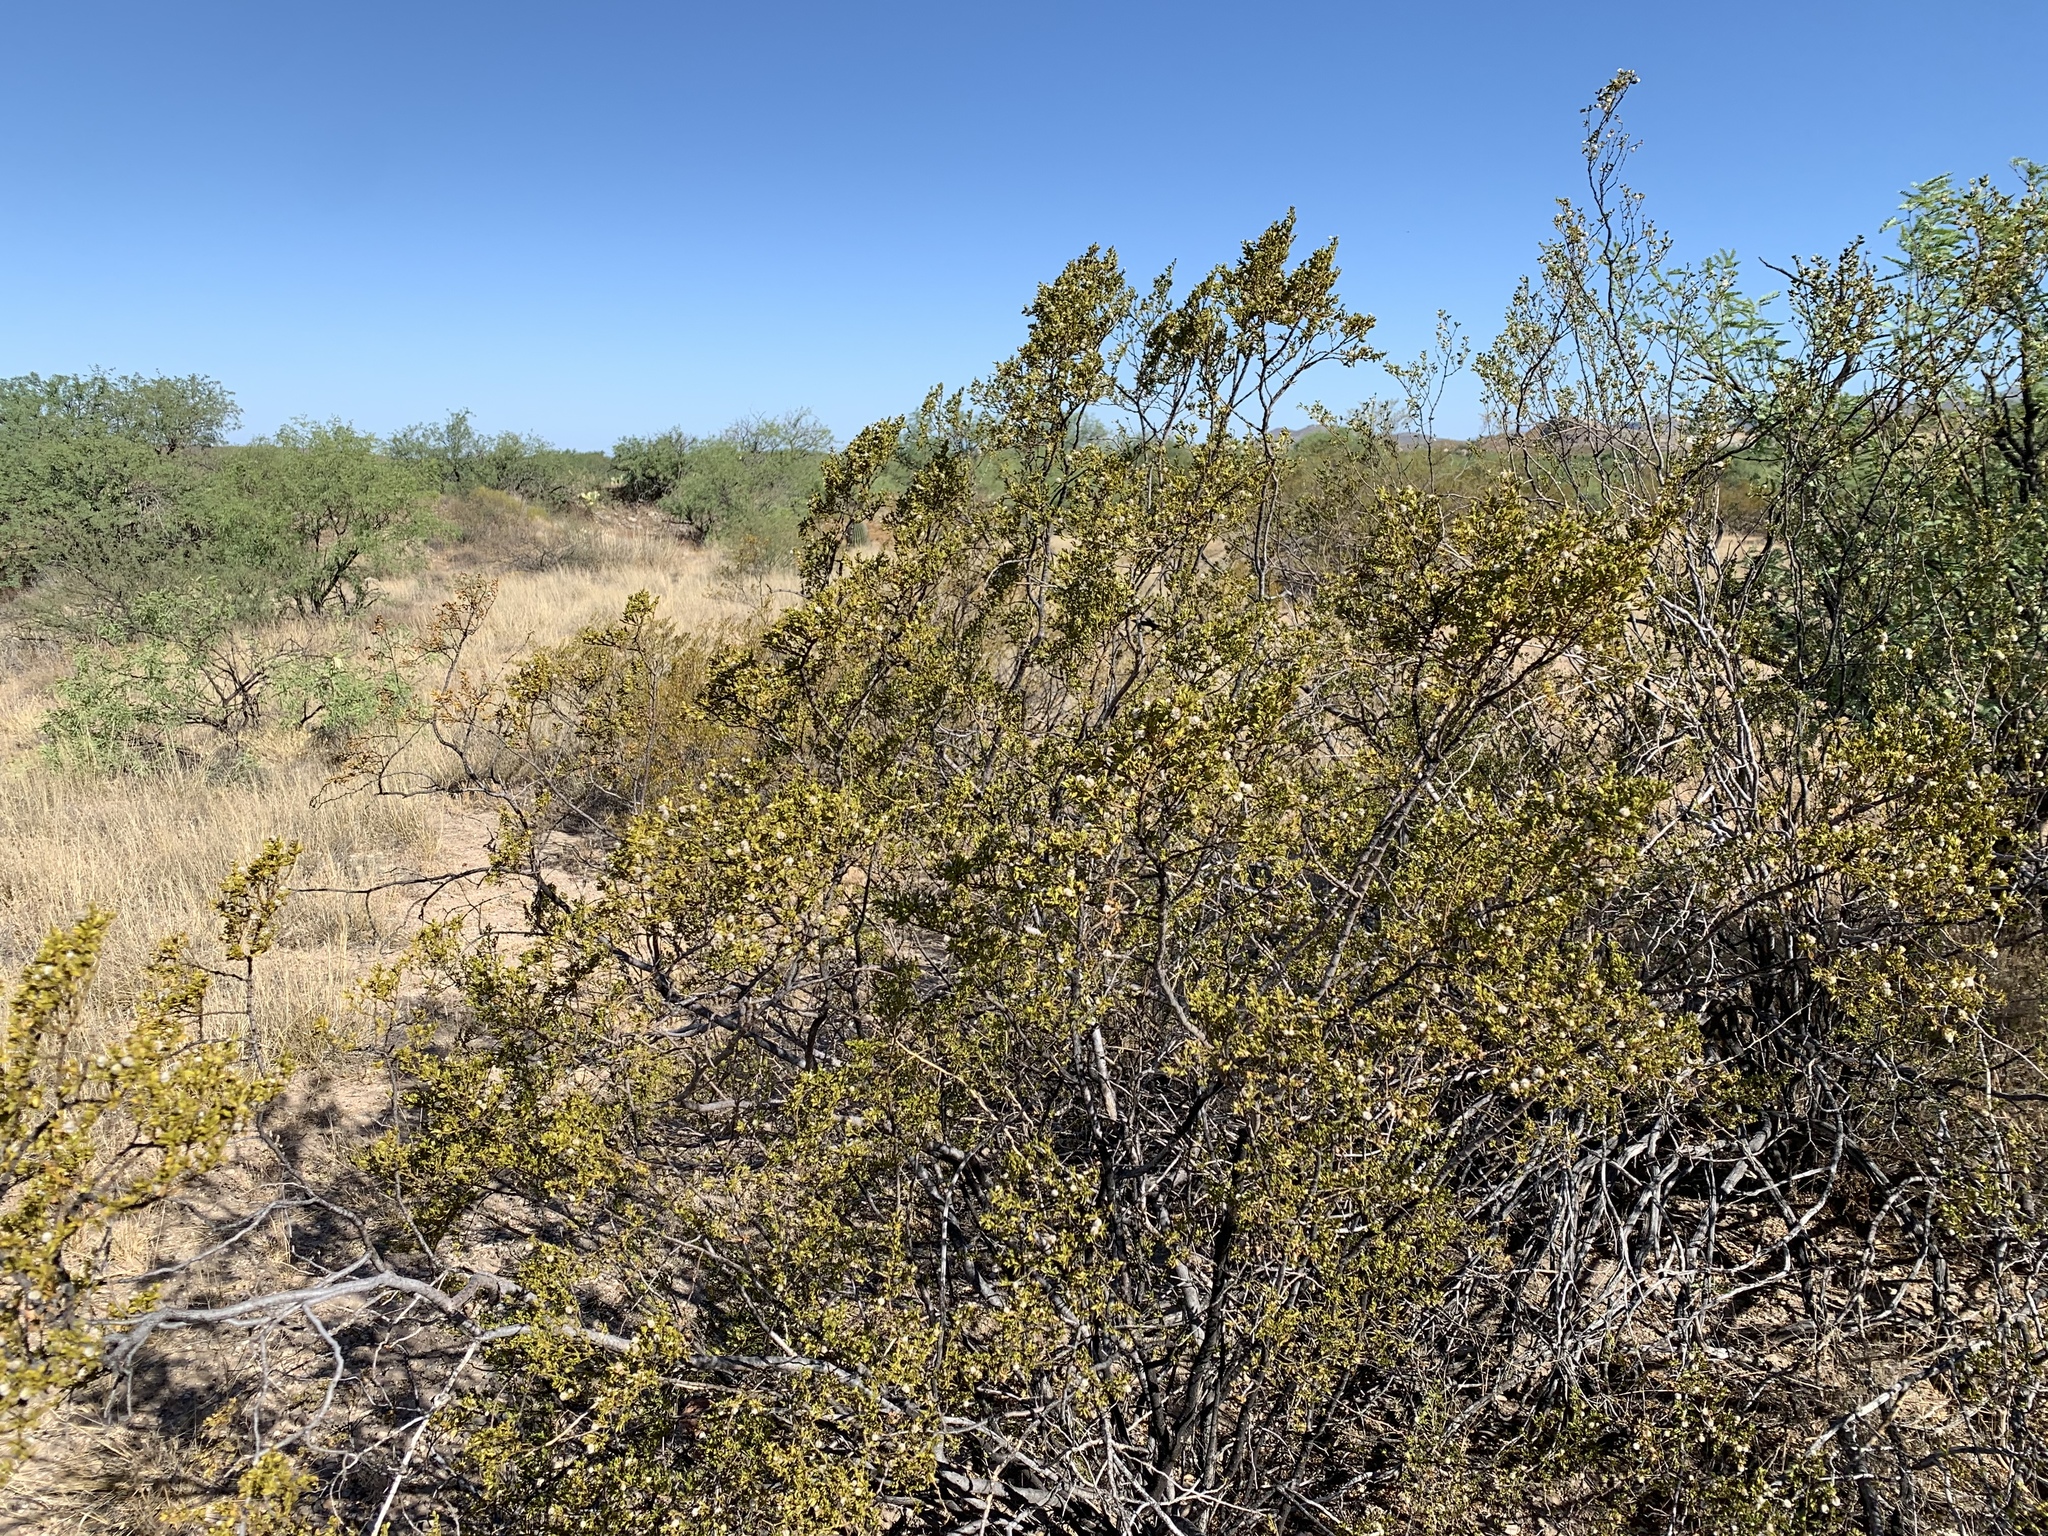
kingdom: Plantae
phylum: Tracheophyta
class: Magnoliopsida
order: Zygophyllales
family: Zygophyllaceae
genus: Larrea
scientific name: Larrea tridentata
